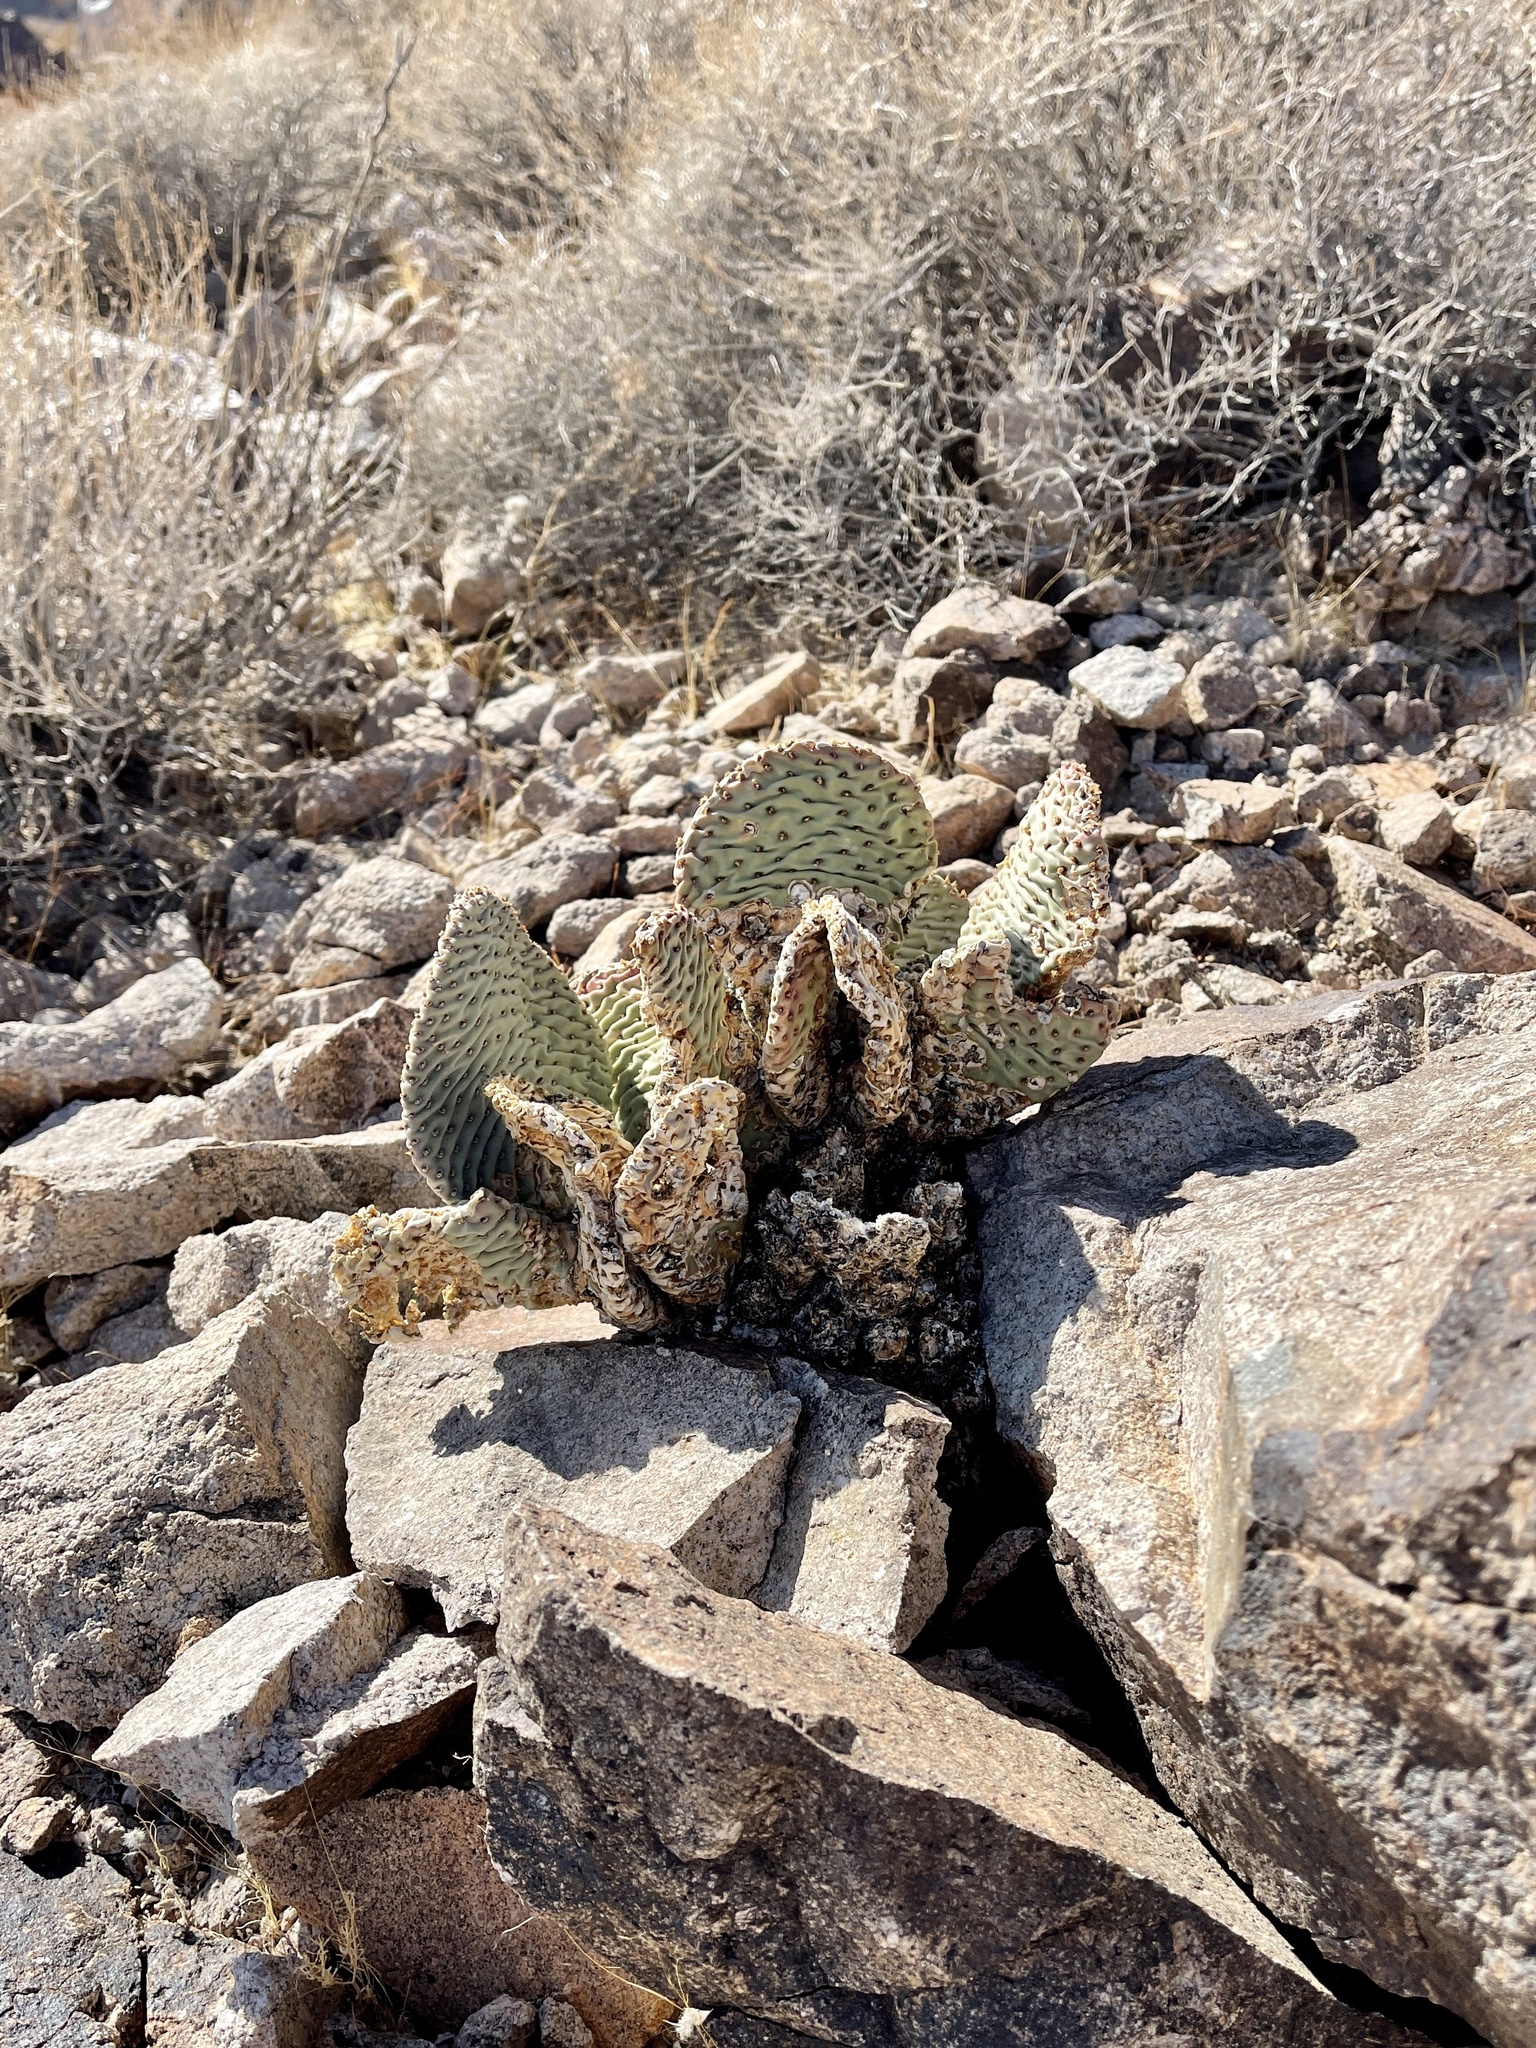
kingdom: Plantae
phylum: Tracheophyta
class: Magnoliopsida
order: Caryophyllales
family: Cactaceae
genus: Opuntia
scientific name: Opuntia basilaris
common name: Beavertail prickly-pear
